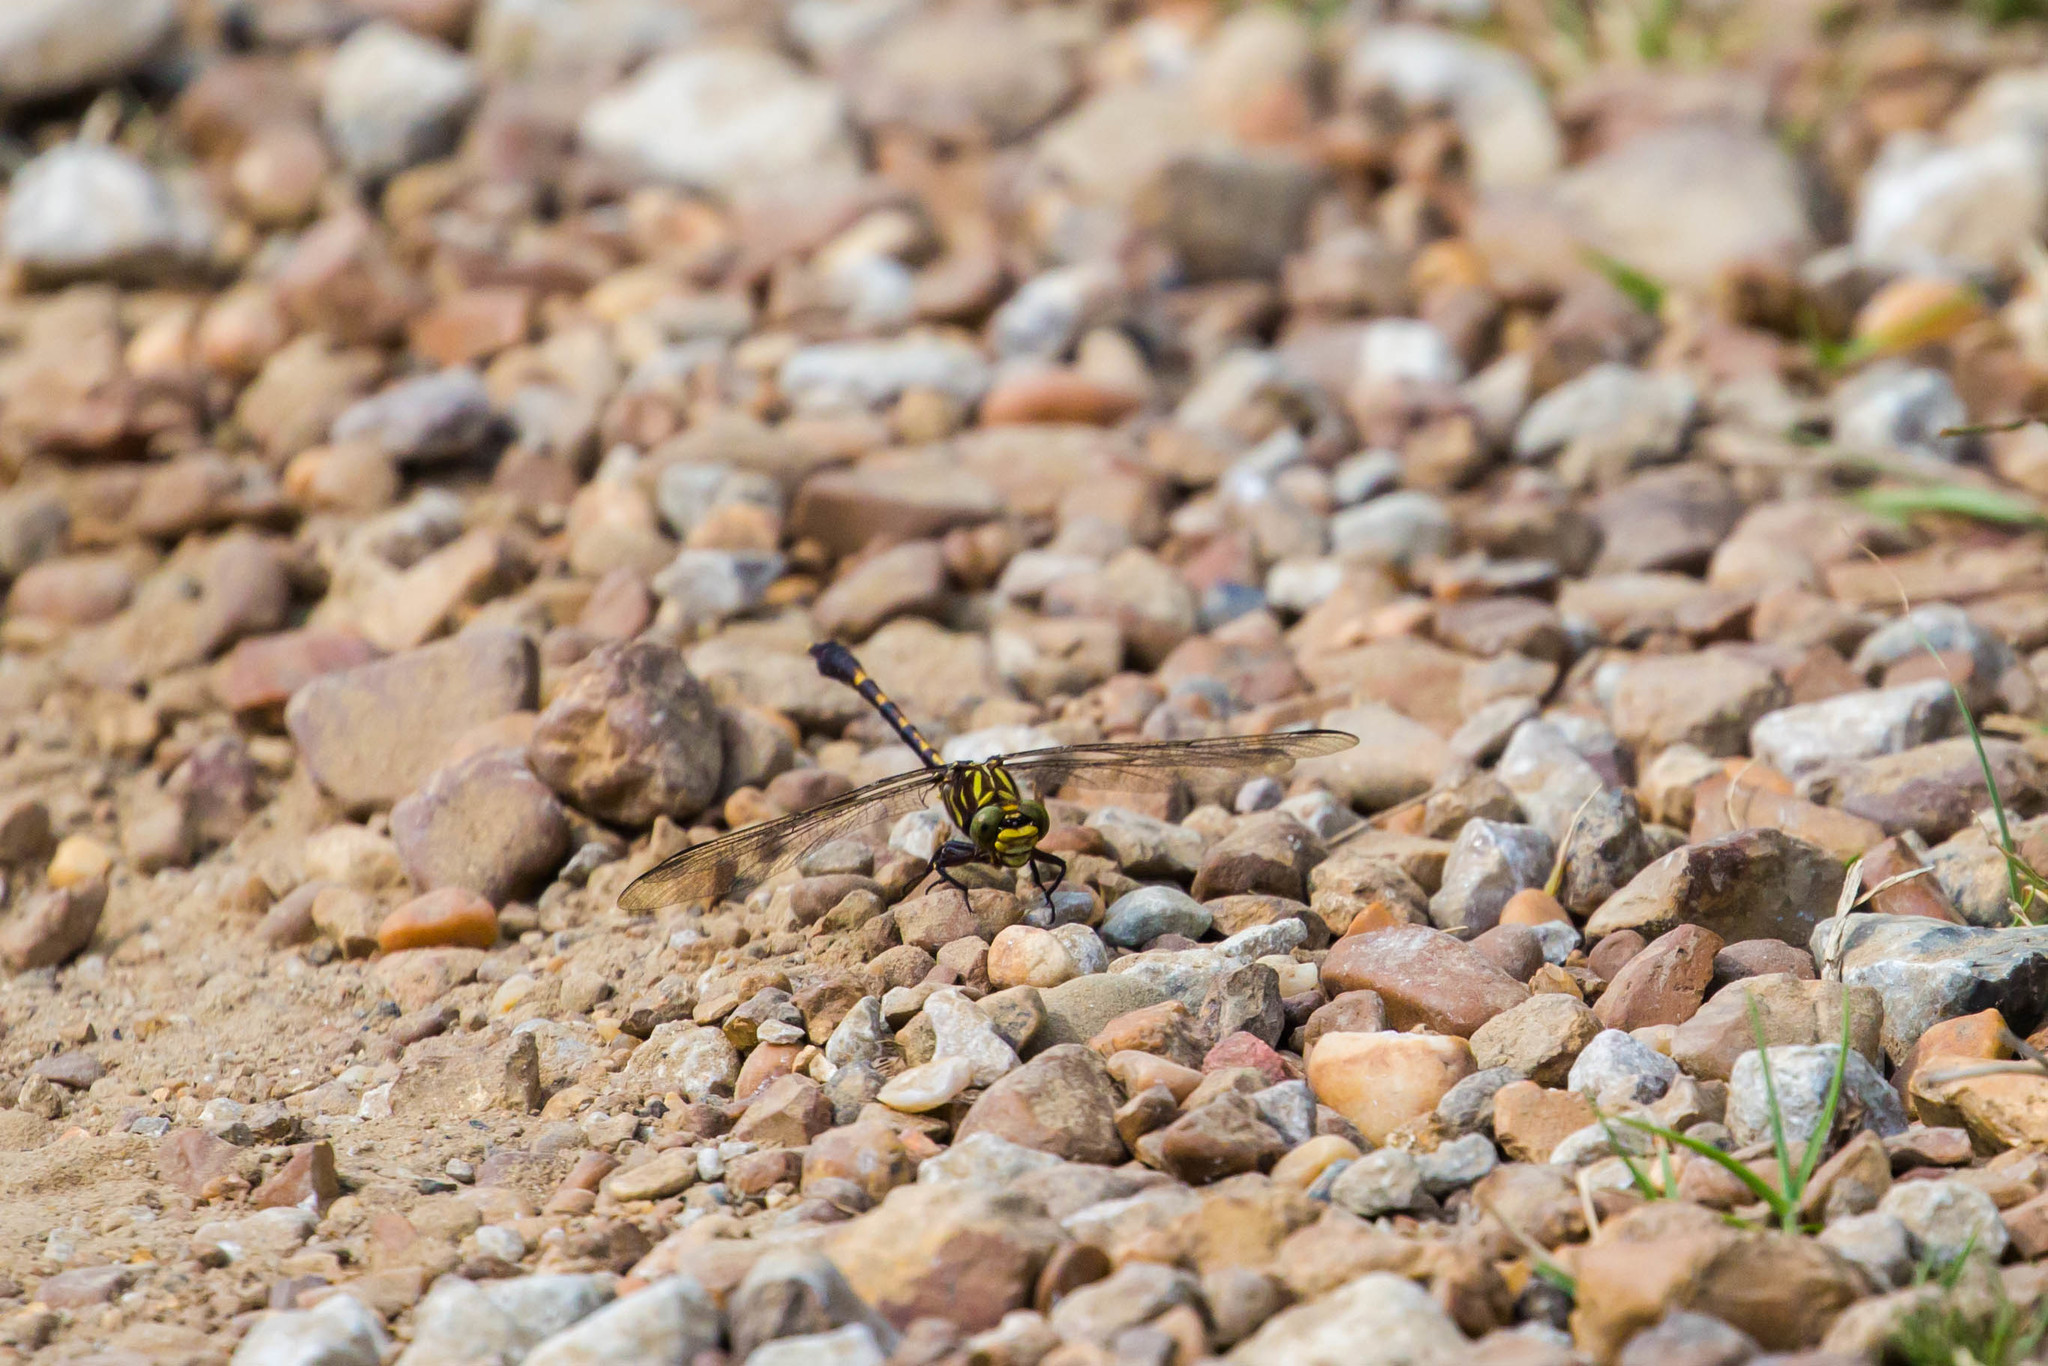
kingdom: Animalia
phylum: Arthropoda
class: Insecta
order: Odonata
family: Gomphidae
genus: Progomphus
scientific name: Progomphus obscurus
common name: Common sanddragon
